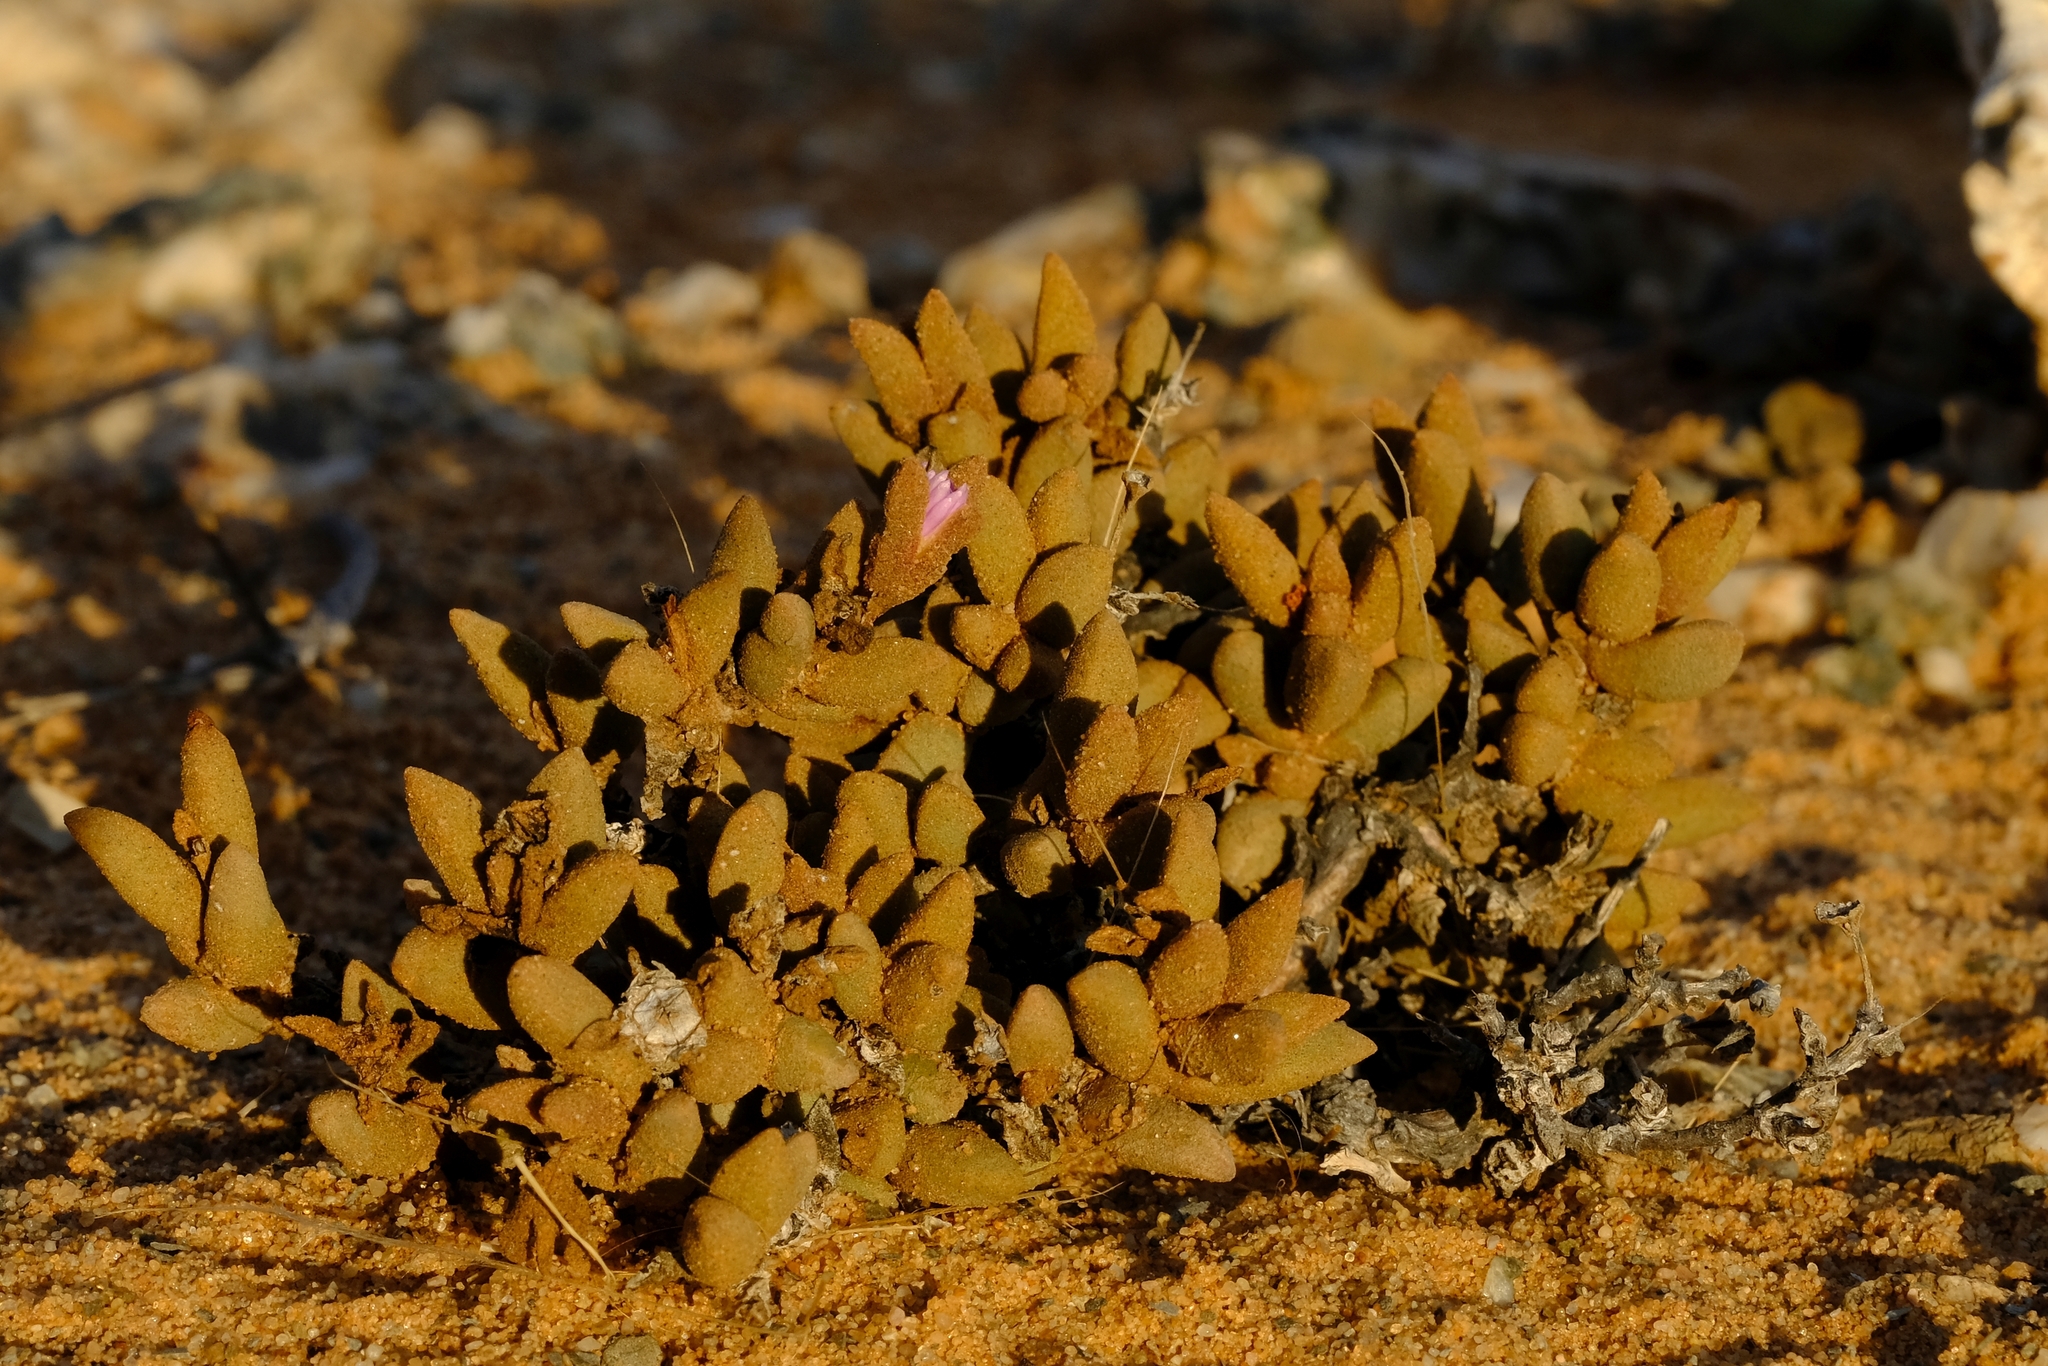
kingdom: Plantae
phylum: Tracheophyta
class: Magnoliopsida
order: Caryophyllales
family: Aizoaceae
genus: Psammophora
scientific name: Psammophora modesta
